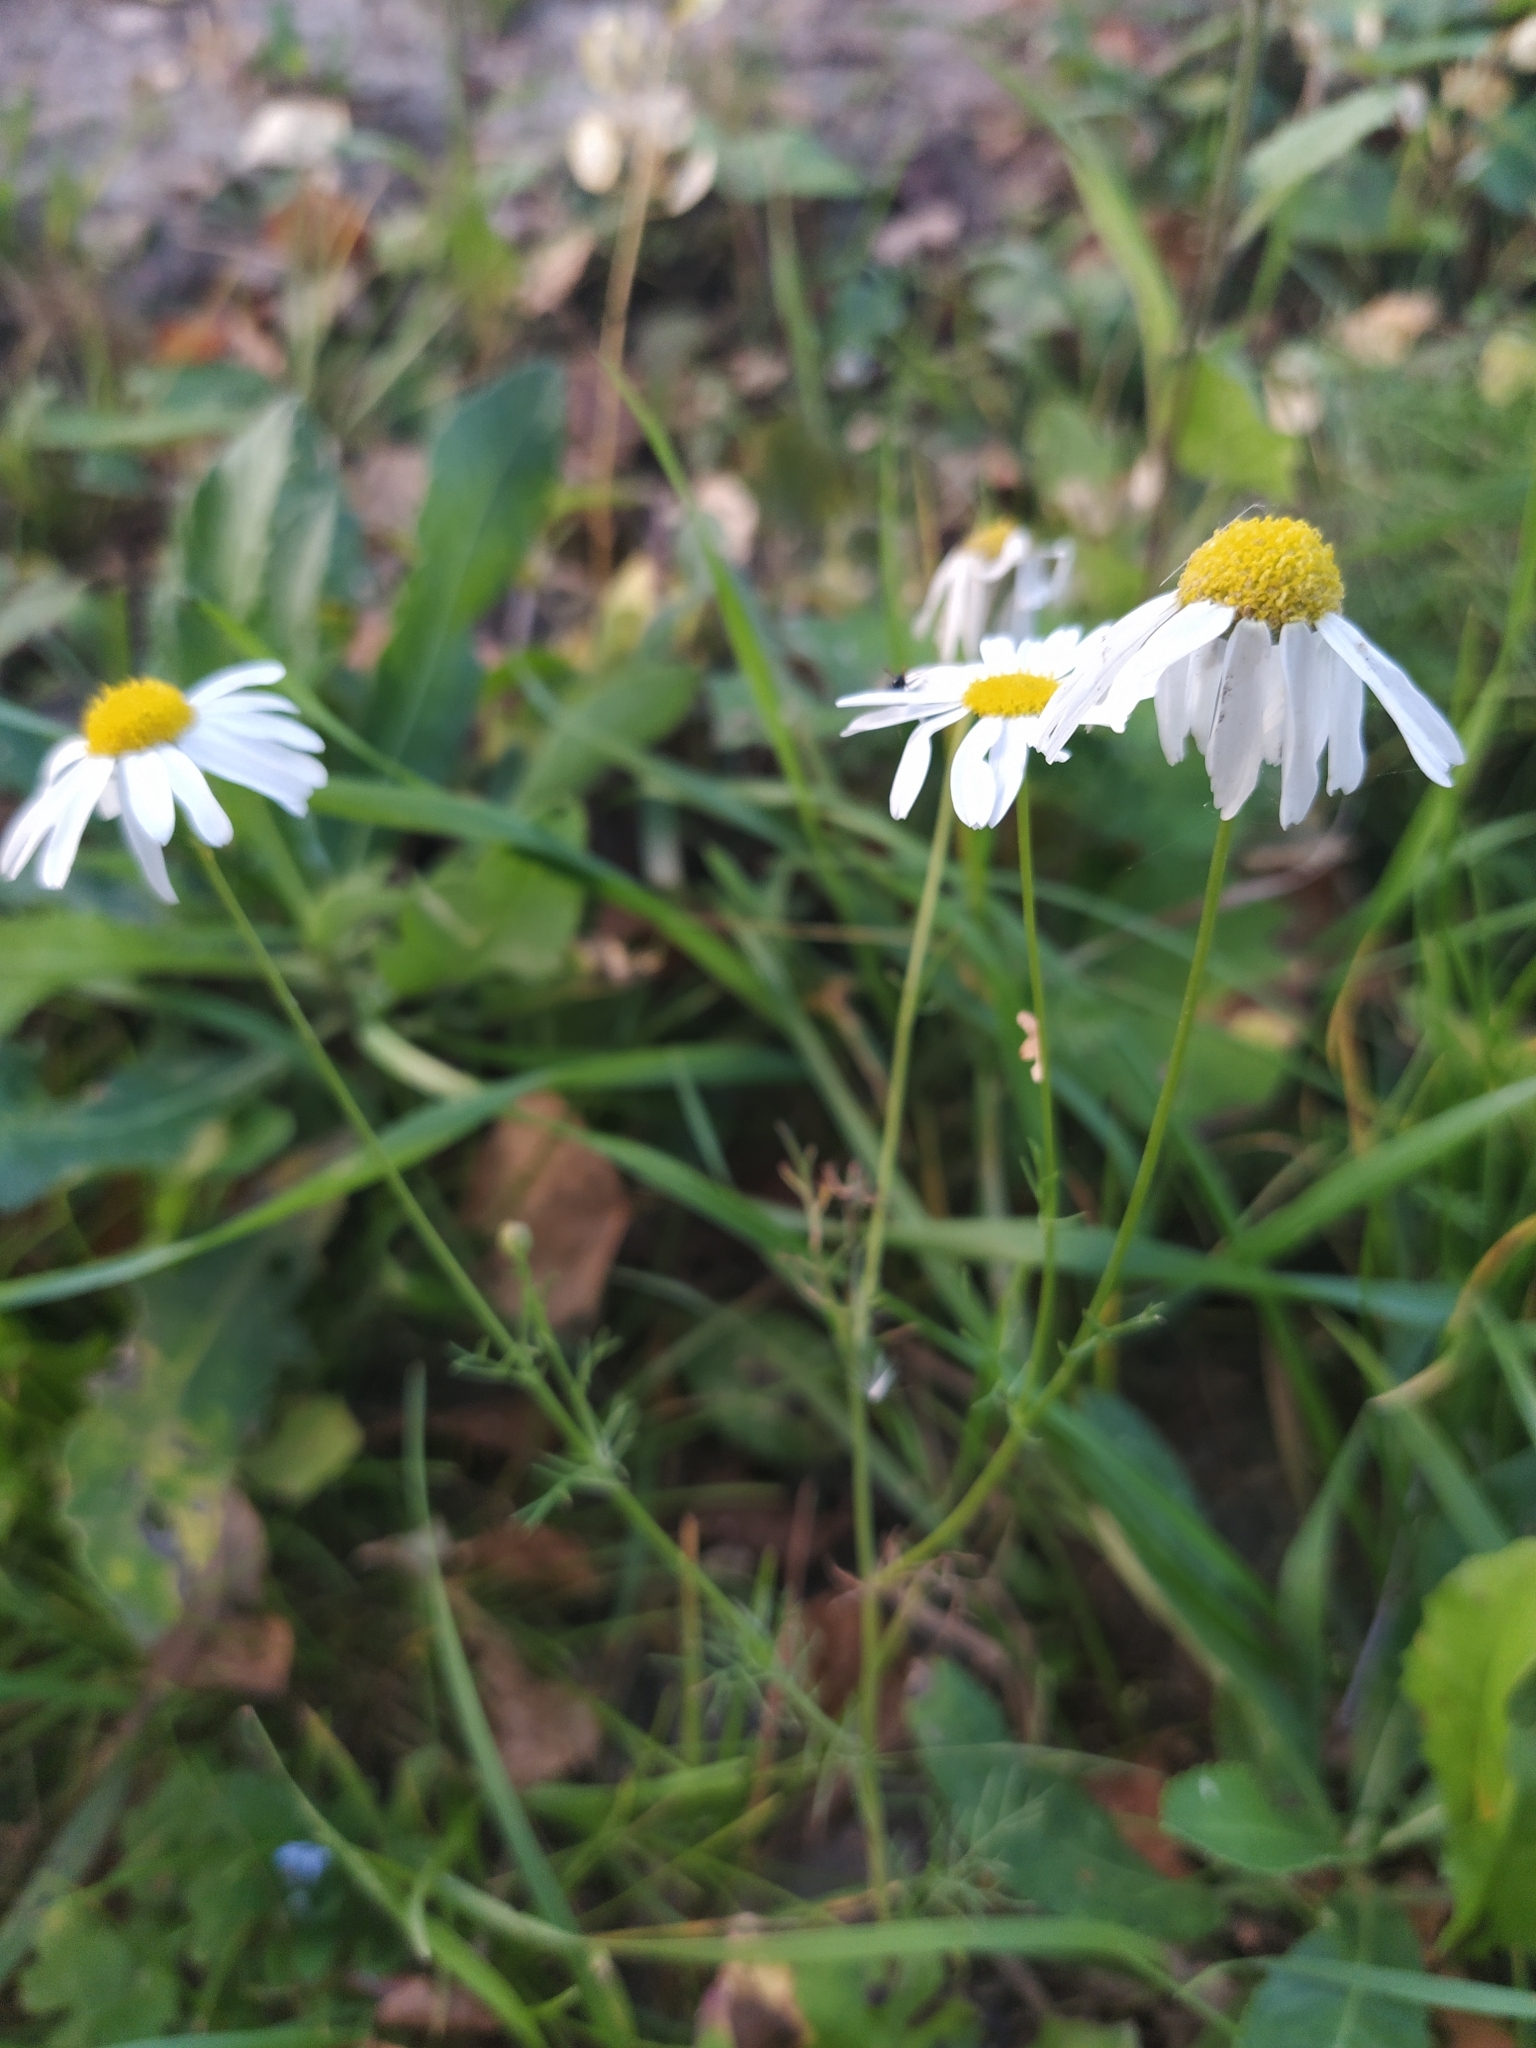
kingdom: Plantae
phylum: Tracheophyta
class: Magnoliopsida
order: Asterales
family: Asteraceae
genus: Tripleurospermum
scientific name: Tripleurospermum inodorum
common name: Scentless mayweed
